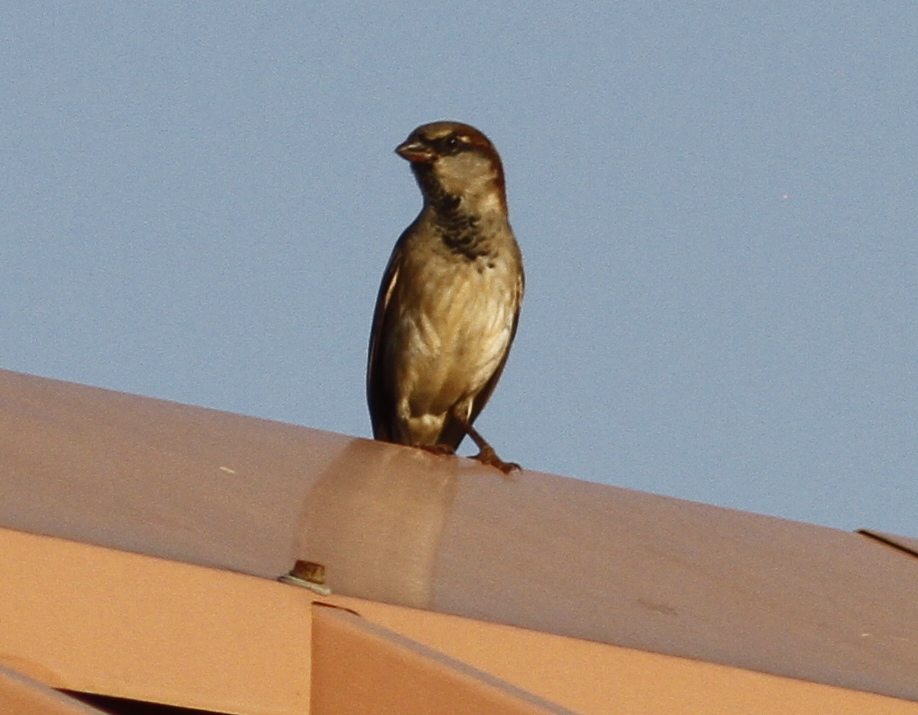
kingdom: Animalia
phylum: Chordata
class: Aves
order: Passeriformes
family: Passeridae
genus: Passer
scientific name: Passer domesticus
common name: House sparrow
